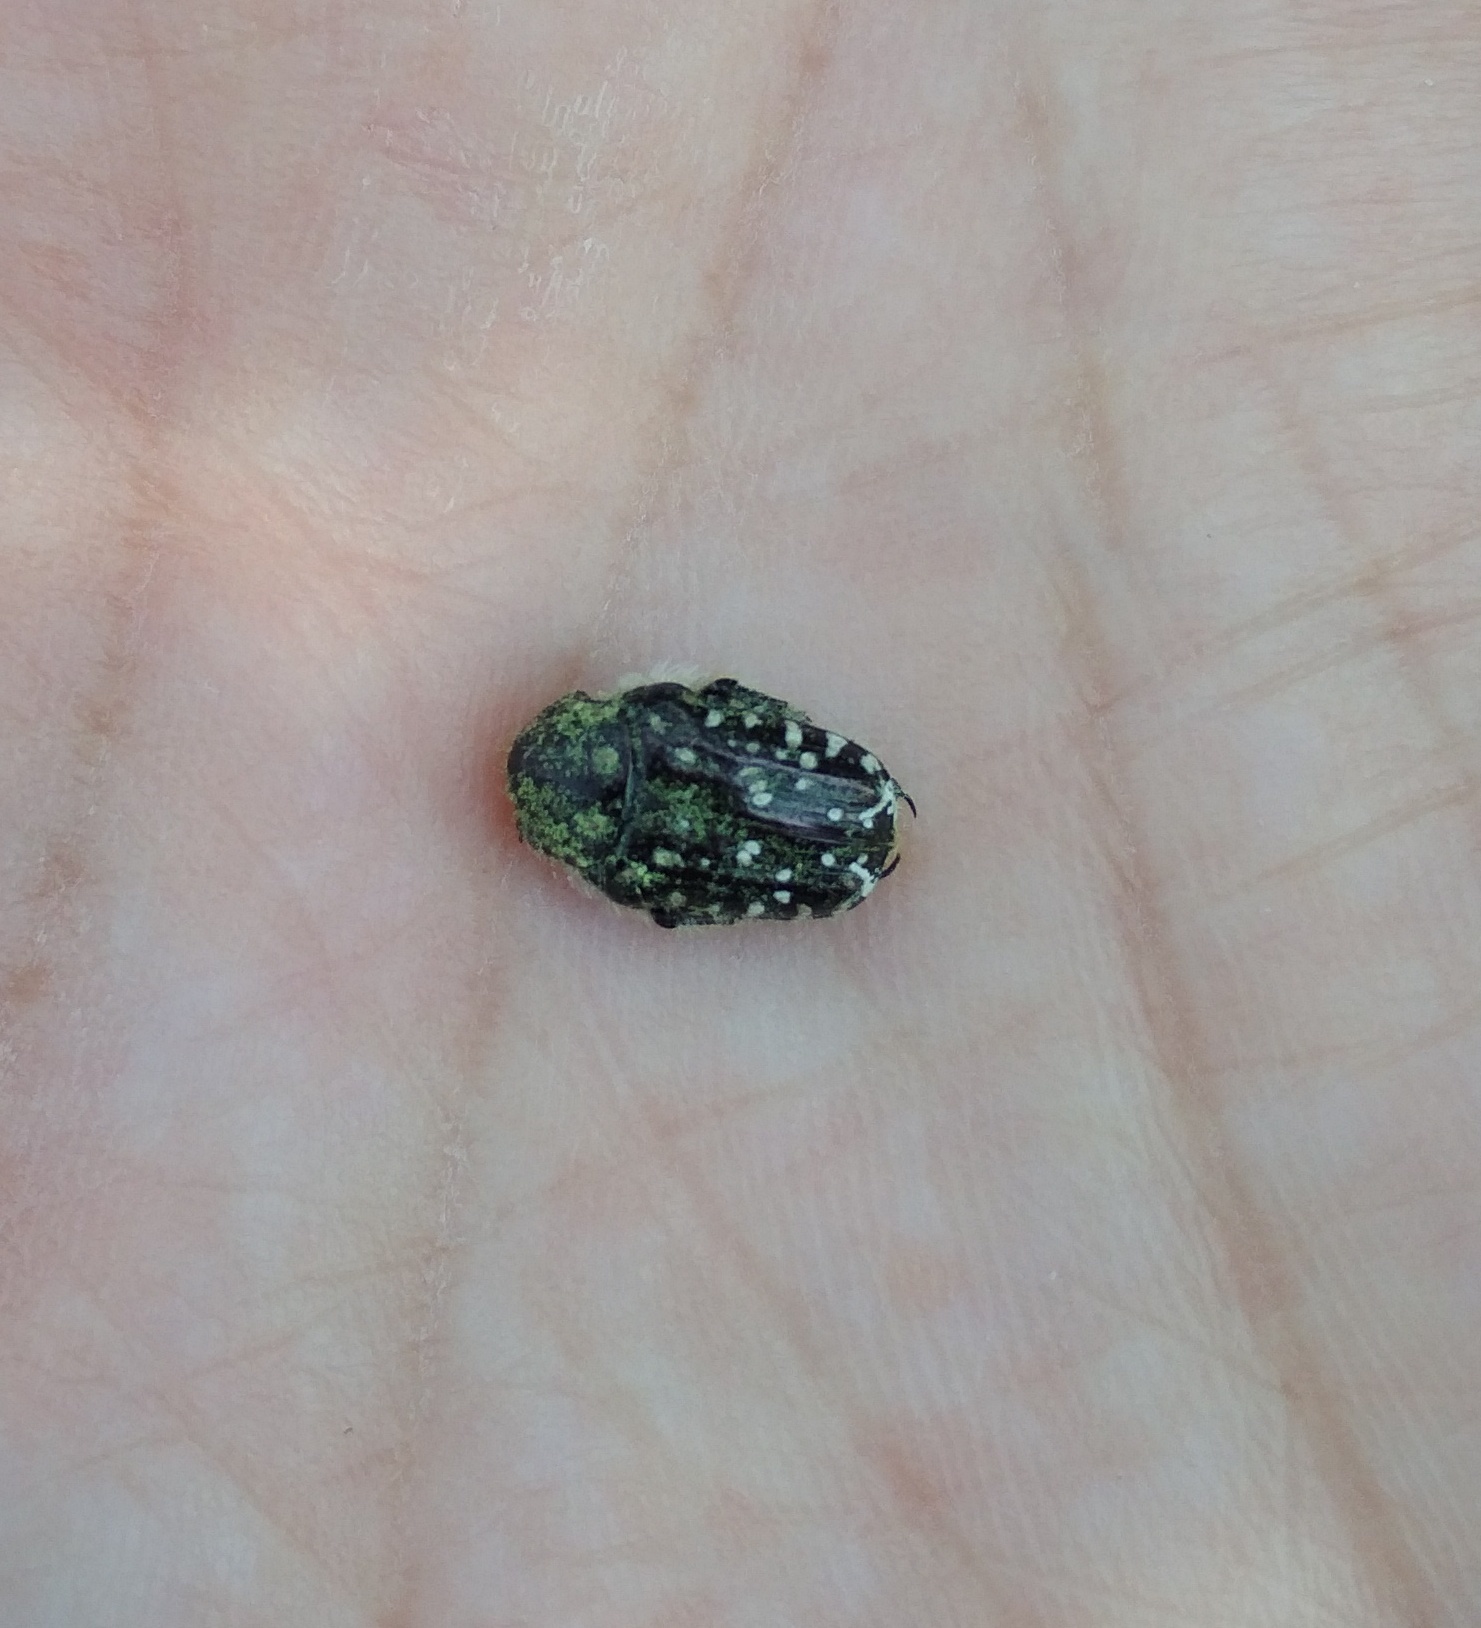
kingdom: Animalia
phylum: Arthropoda
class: Insecta
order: Coleoptera
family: Scarabaeidae
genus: Oxythyrea
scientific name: Oxythyrea funesta
